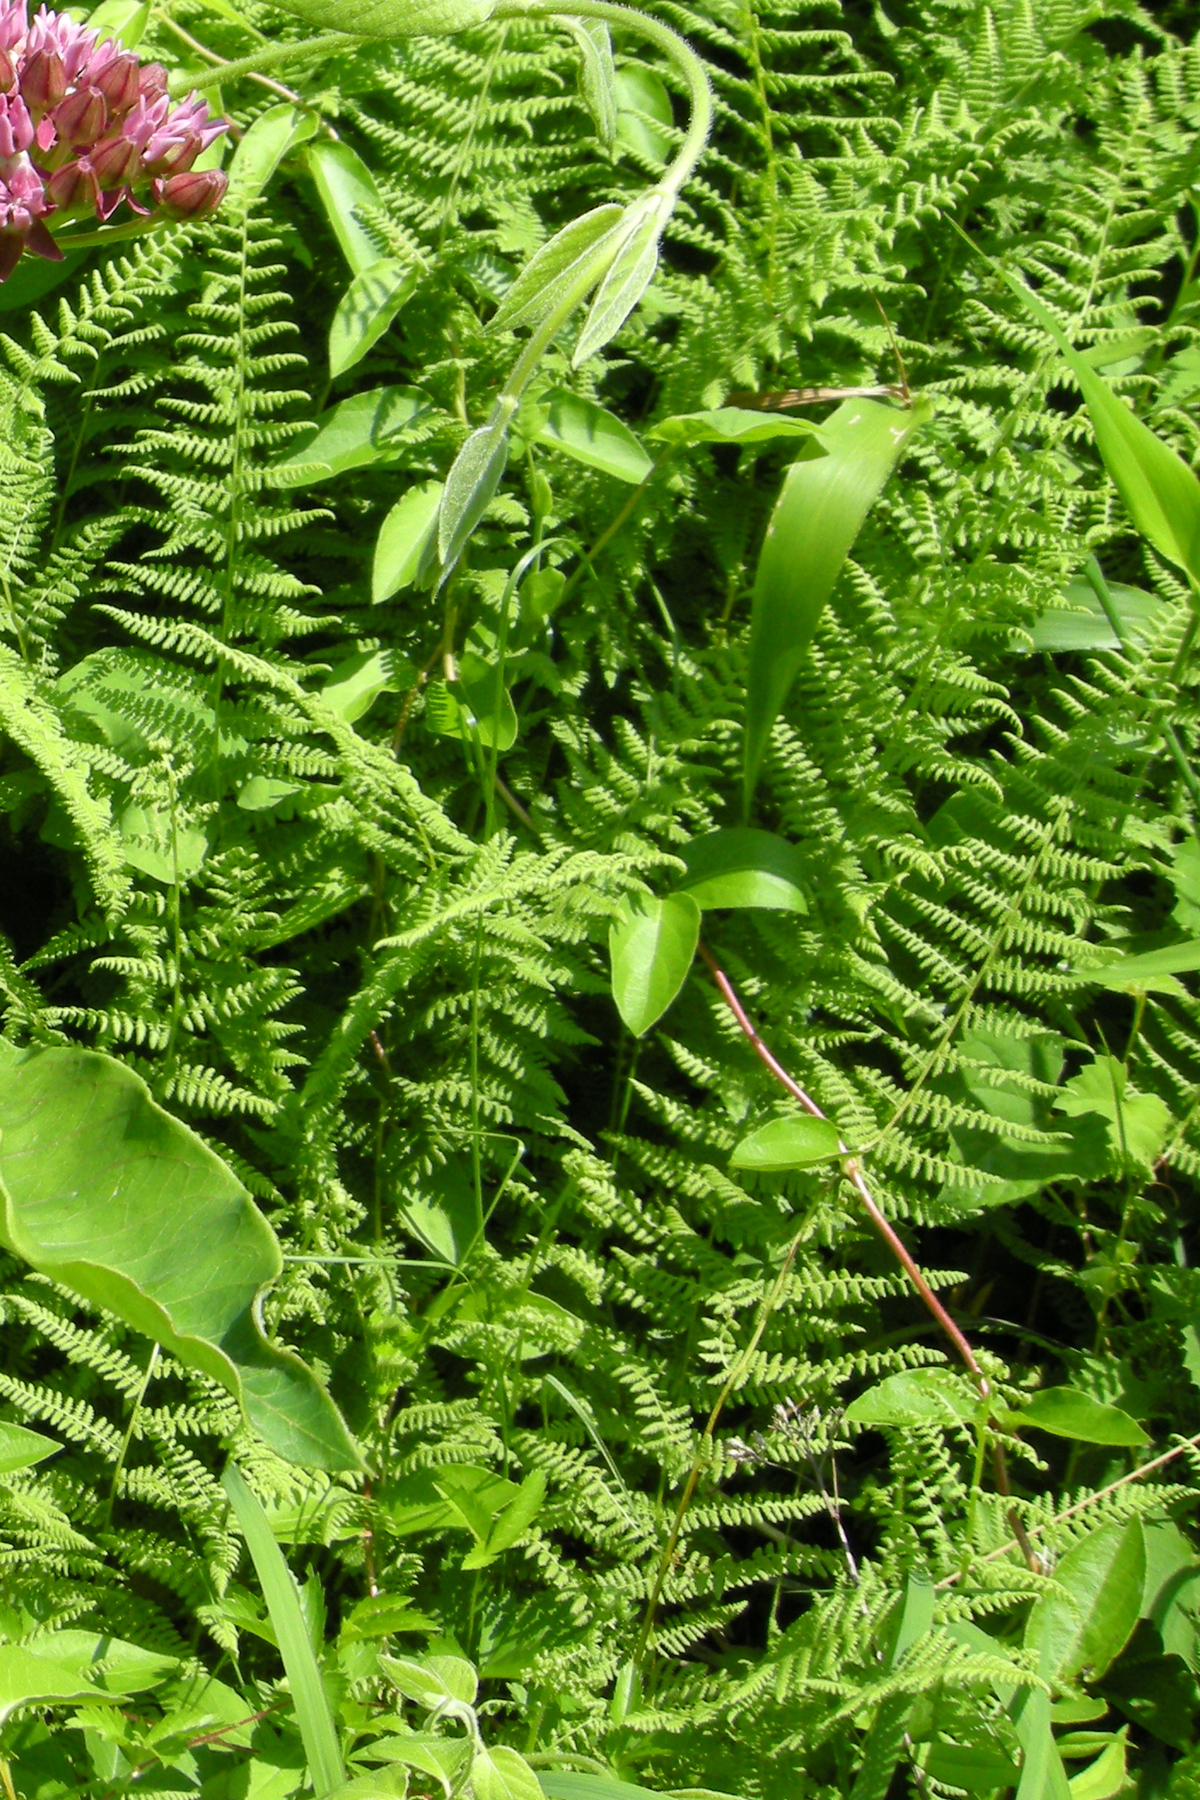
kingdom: Plantae
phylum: Tracheophyta
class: Polypodiopsida
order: Polypodiales
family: Dennstaedtiaceae
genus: Sitobolium
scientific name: Sitobolium punctilobum
